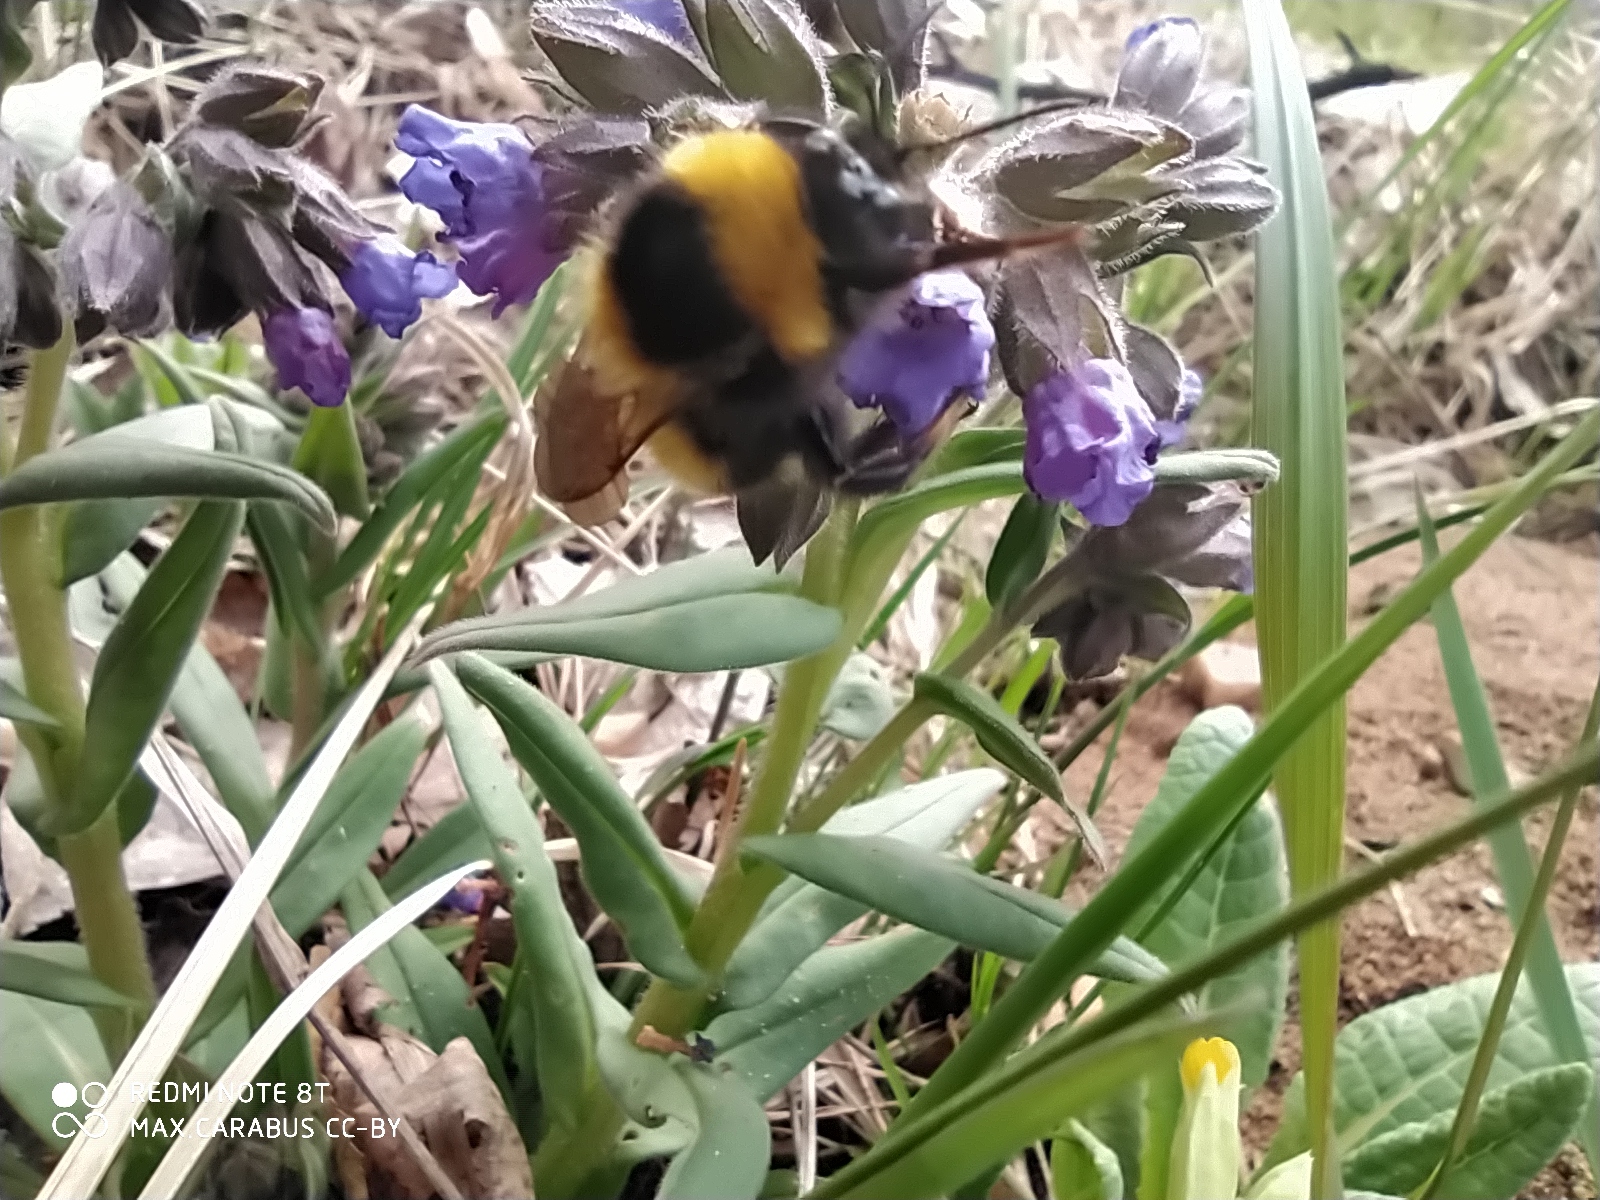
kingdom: Animalia
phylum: Arthropoda
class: Insecta
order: Hymenoptera
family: Apidae
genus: Bombus
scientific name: Bombus hortorum
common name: Garden bumblebee
